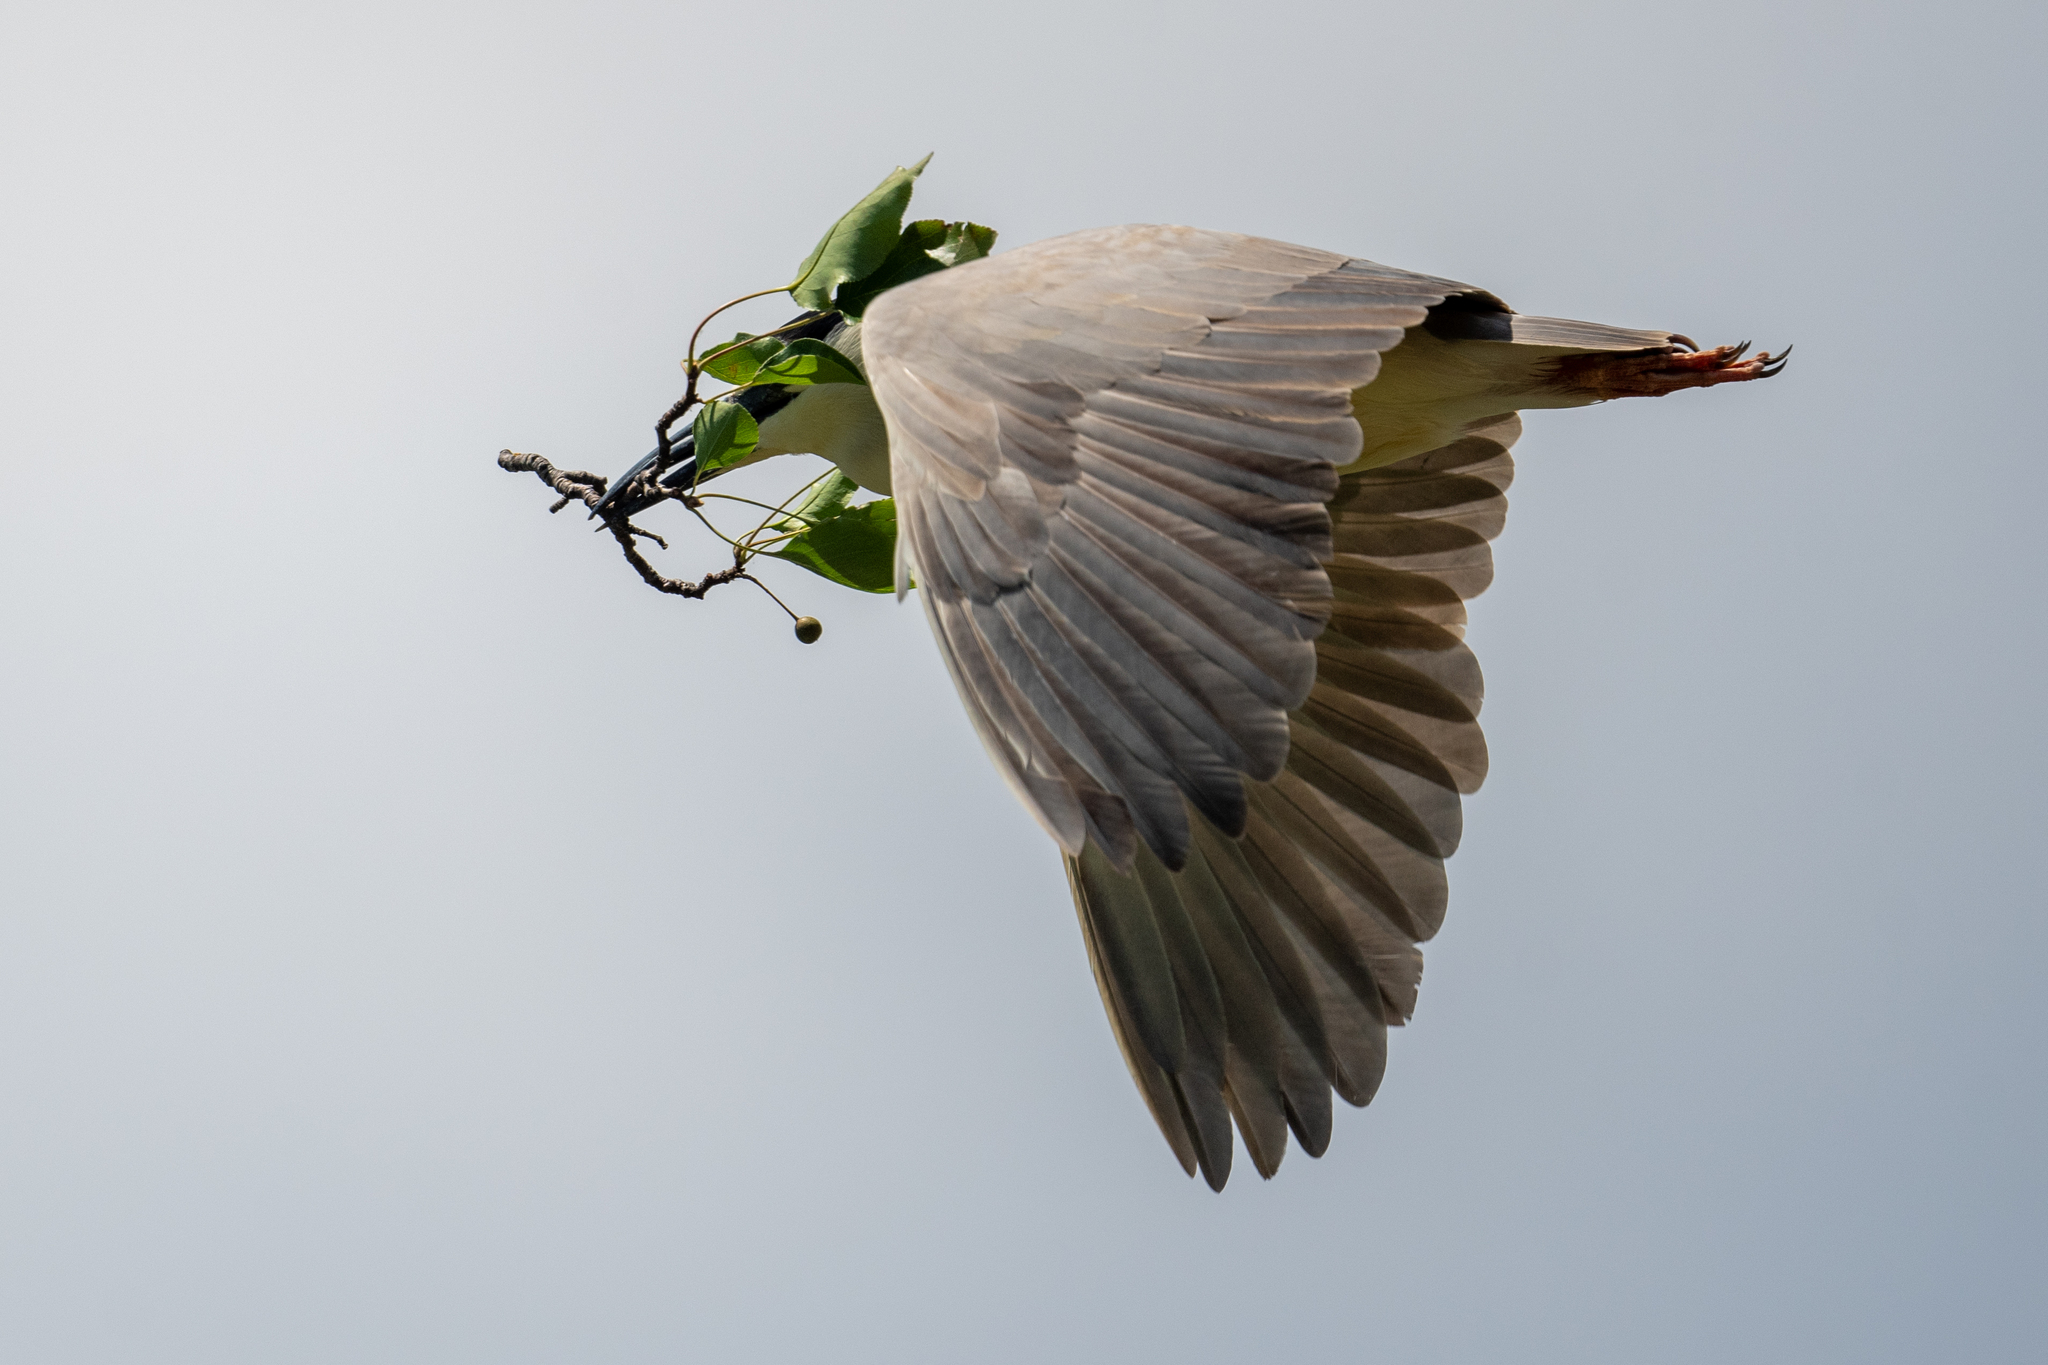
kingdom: Animalia
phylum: Chordata
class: Aves
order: Pelecaniformes
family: Ardeidae
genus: Nycticorax
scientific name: Nycticorax nycticorax
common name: Black-crowned night heron
